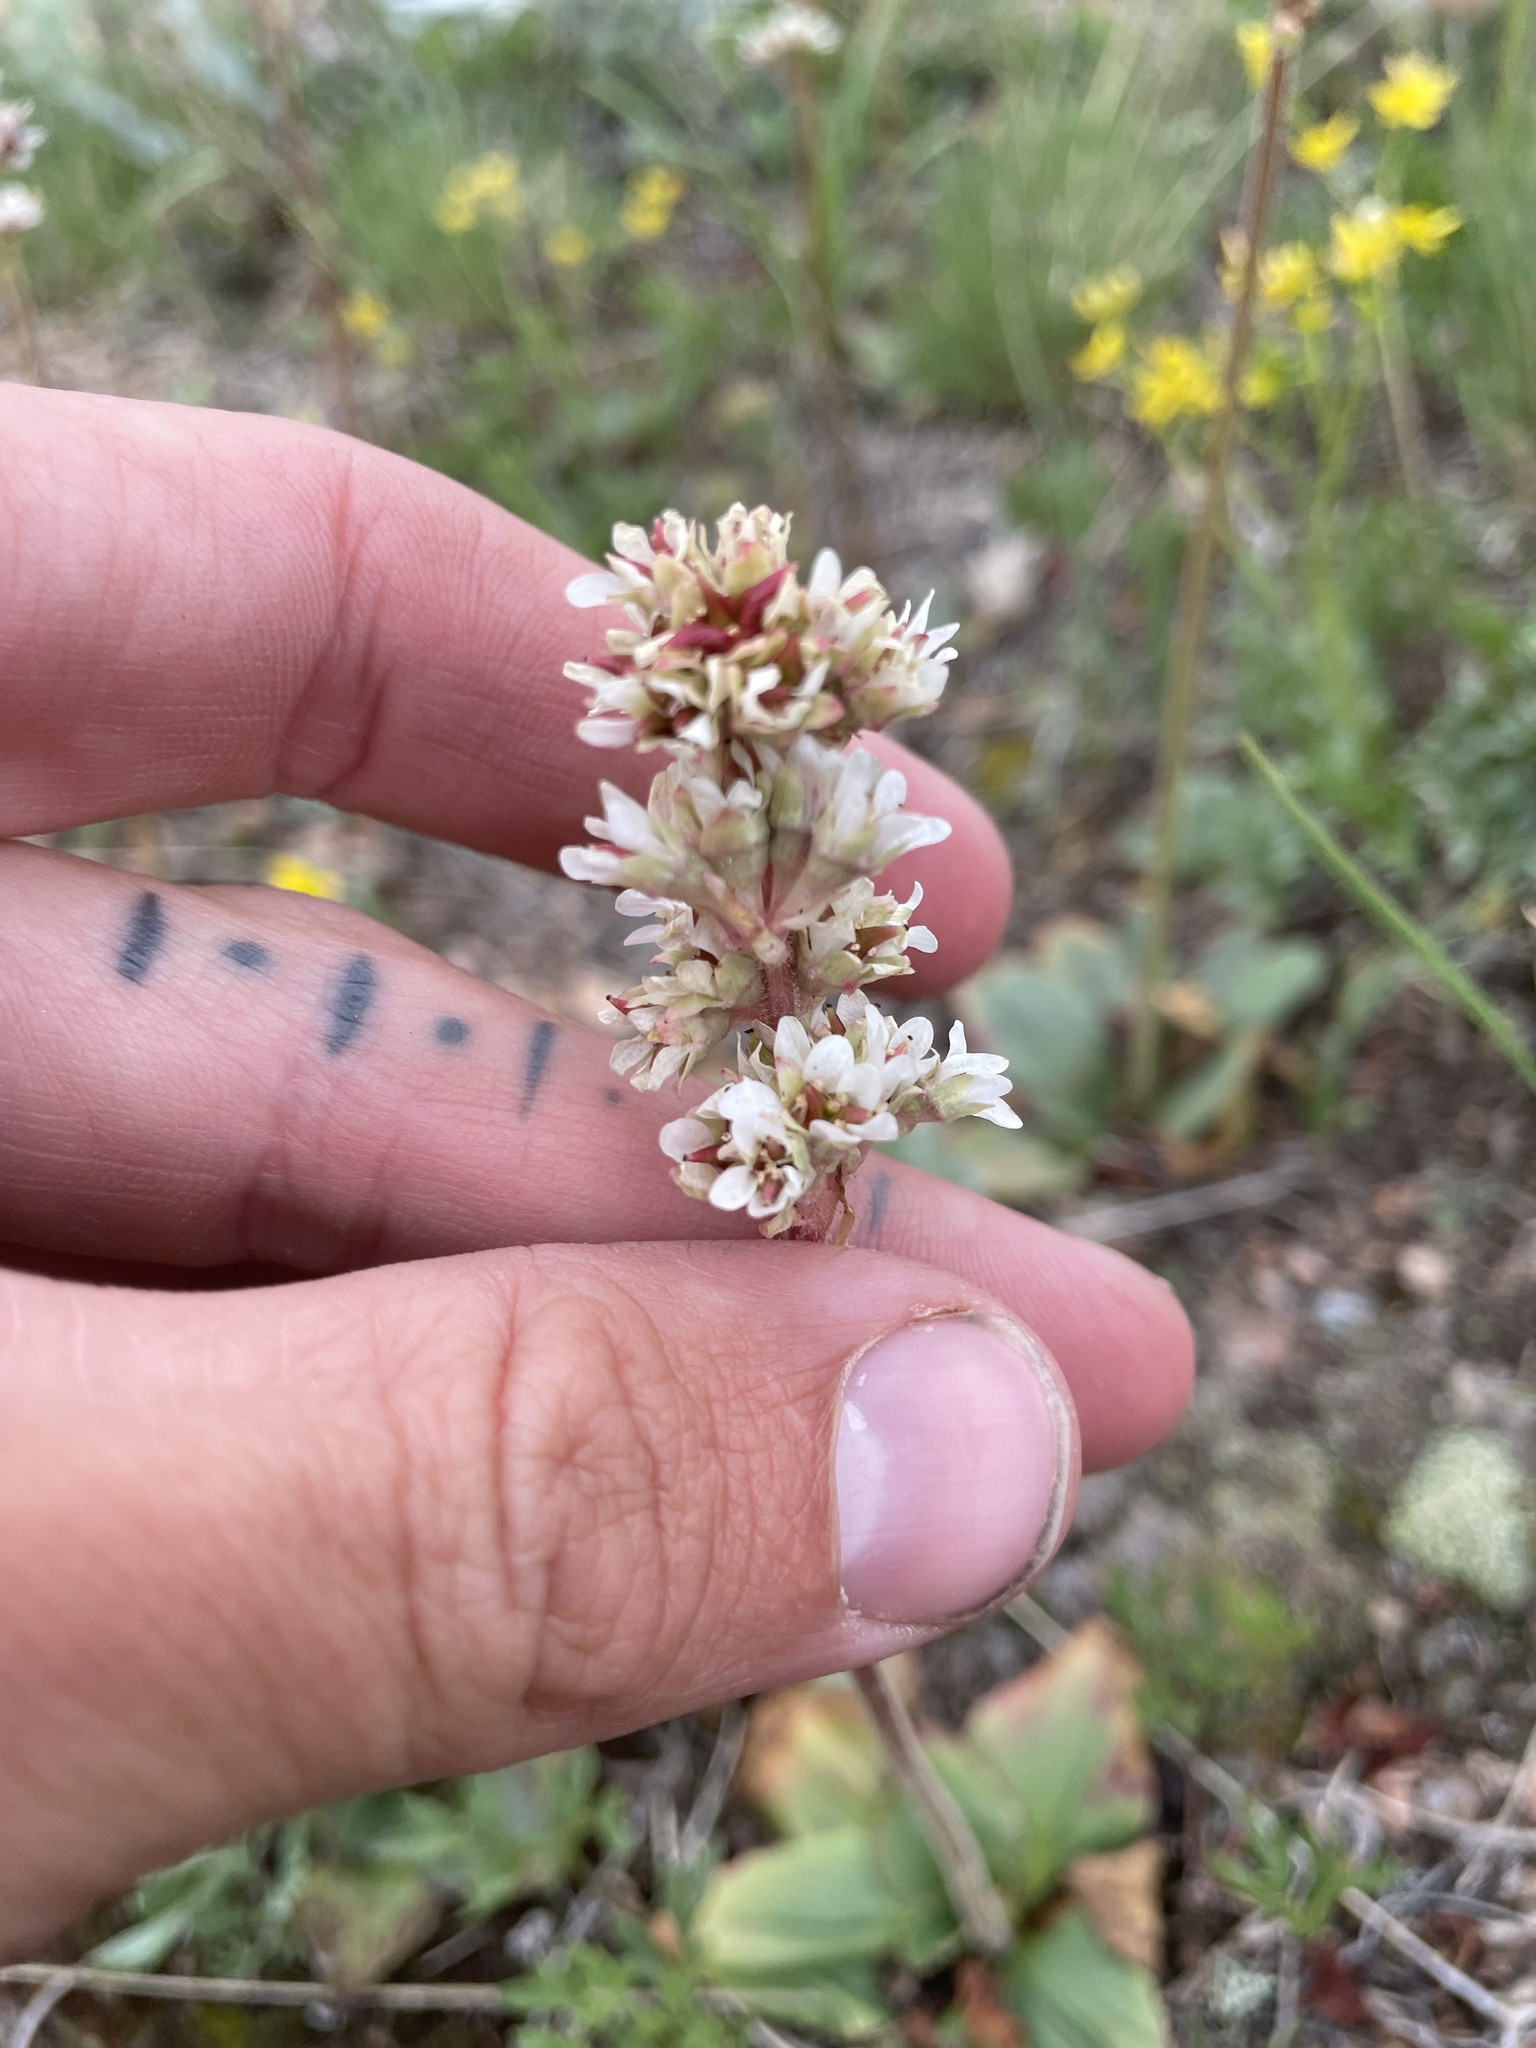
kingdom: Plantae
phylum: Tracheophyta
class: Magnoliopsida
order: Saxifragales
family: Saxifragaceae
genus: Micranthes
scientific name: Micranthes rhomboidea
